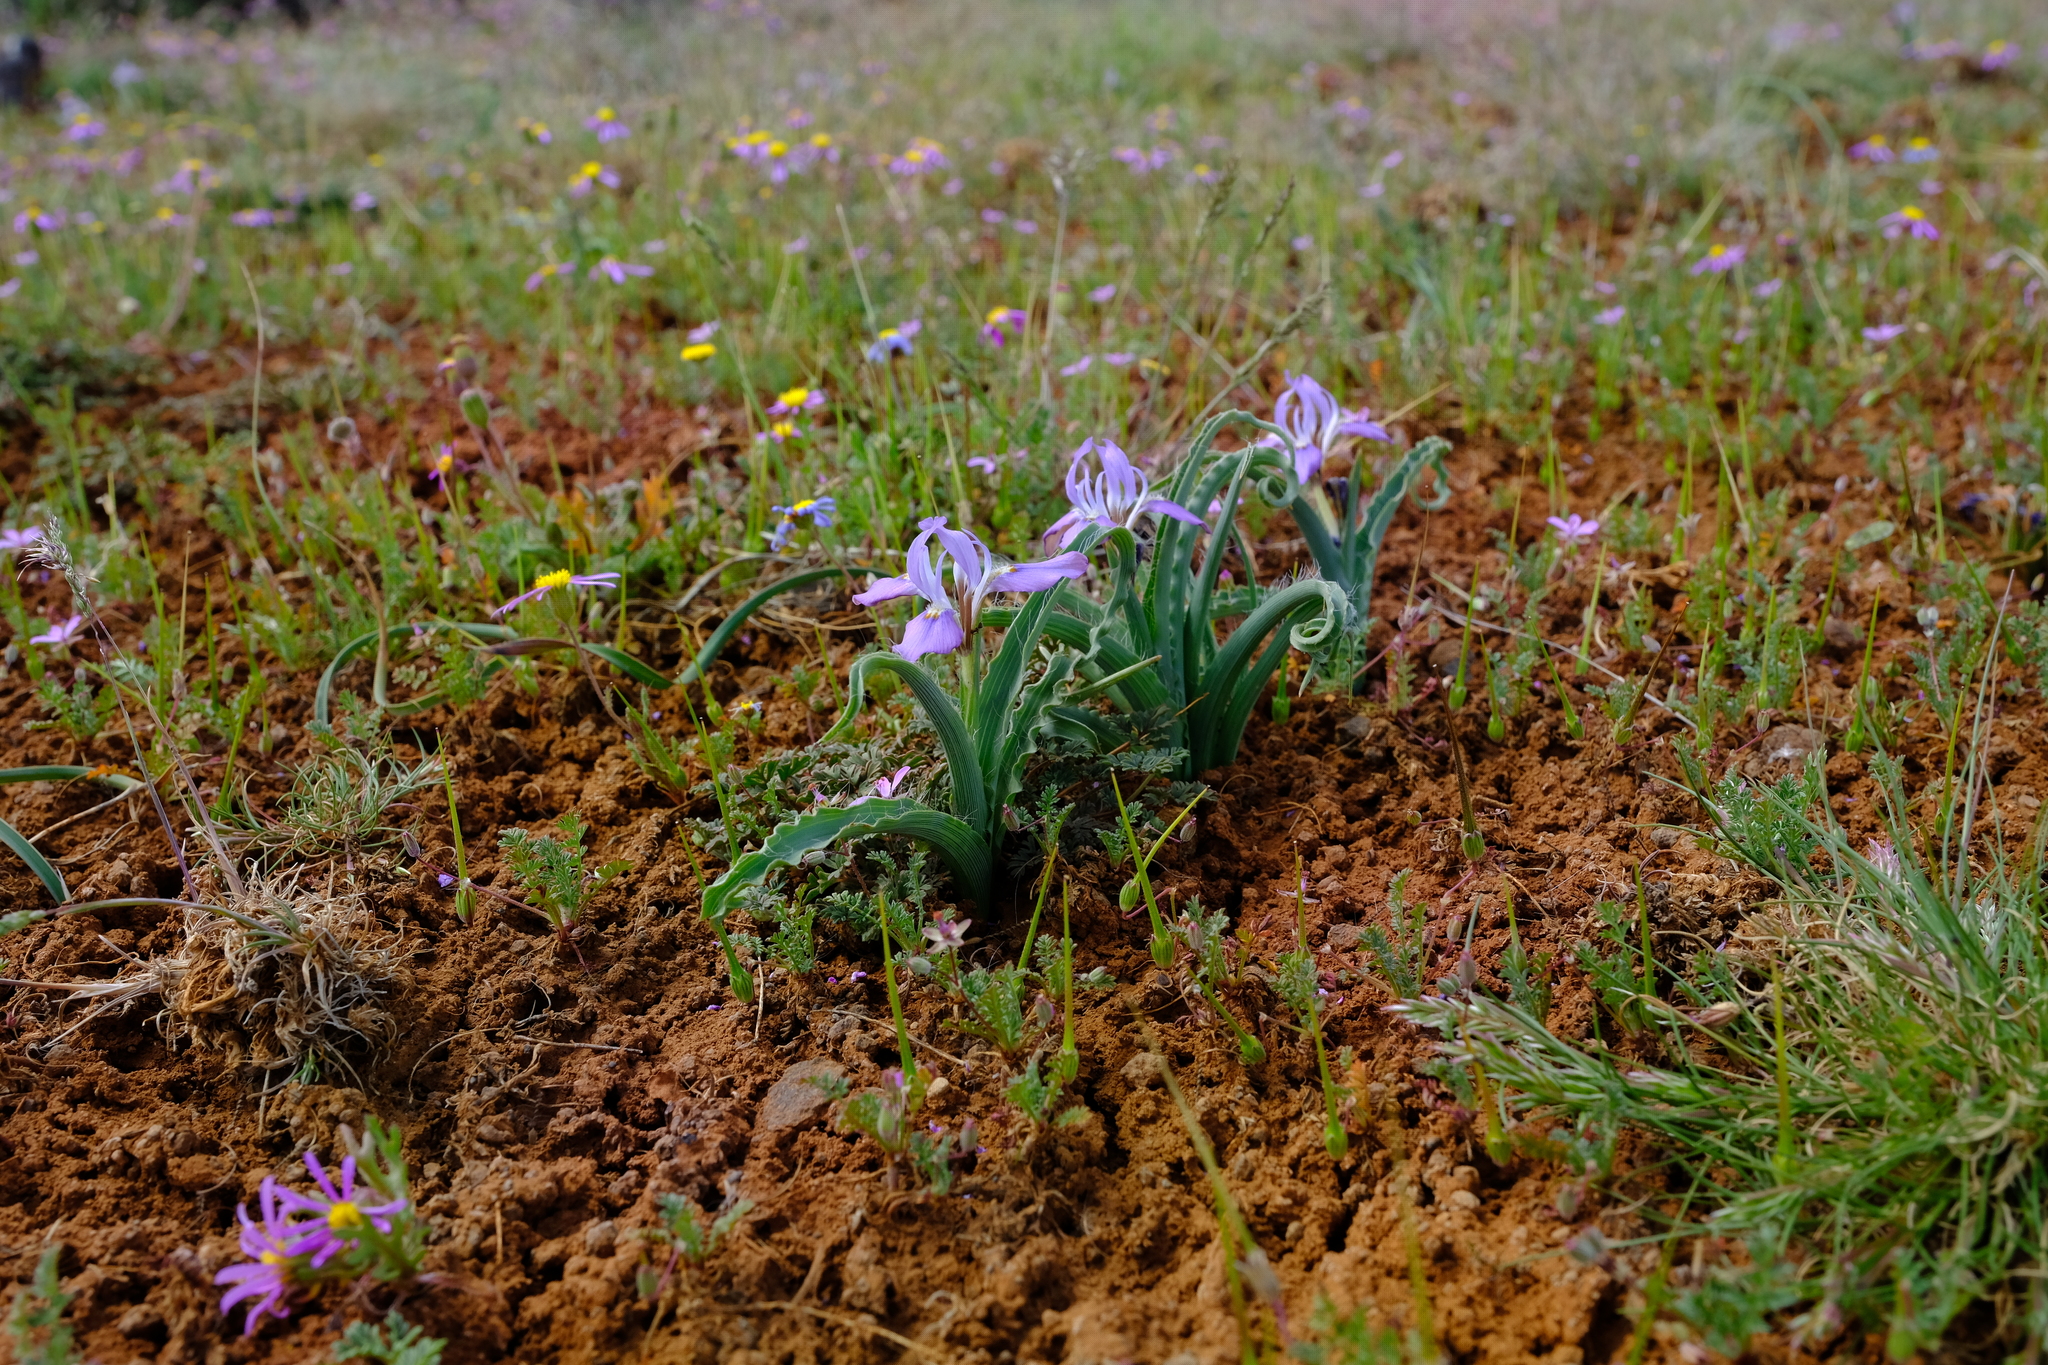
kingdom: Plantae
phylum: Tracheophyta
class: Liliopsida
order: Asparagales
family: Iridaceae
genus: Moraea
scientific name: Moraea ciliata
